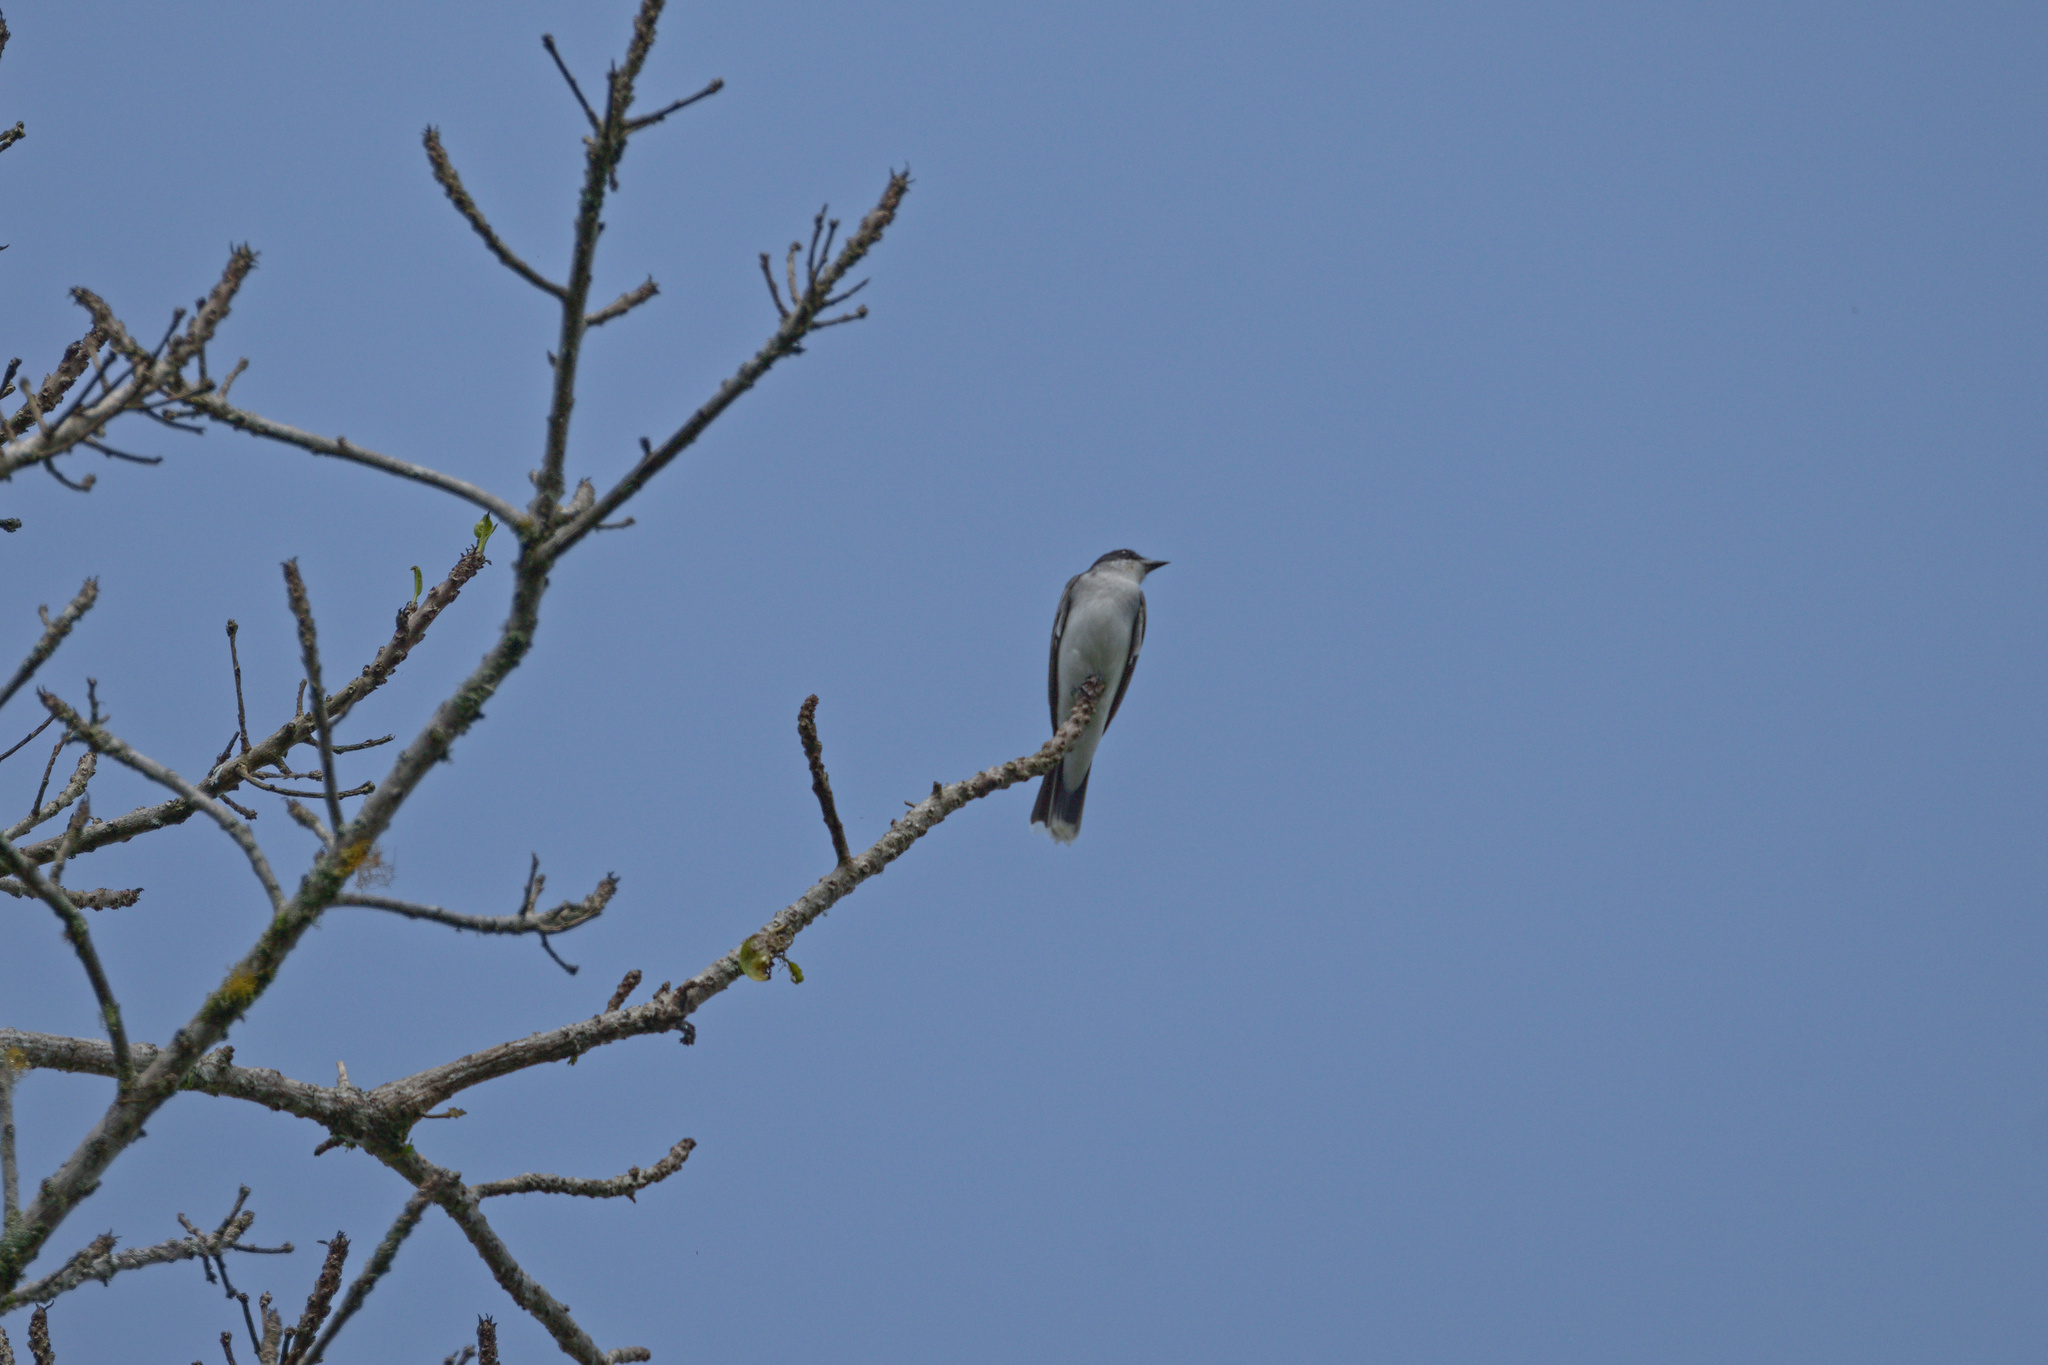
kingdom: Animalia
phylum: Chordata
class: Aves
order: Passeriformes
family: Tyrannidae
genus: Tyrannus
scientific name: Tyrannus tyrannus
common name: Eastern kingbird
